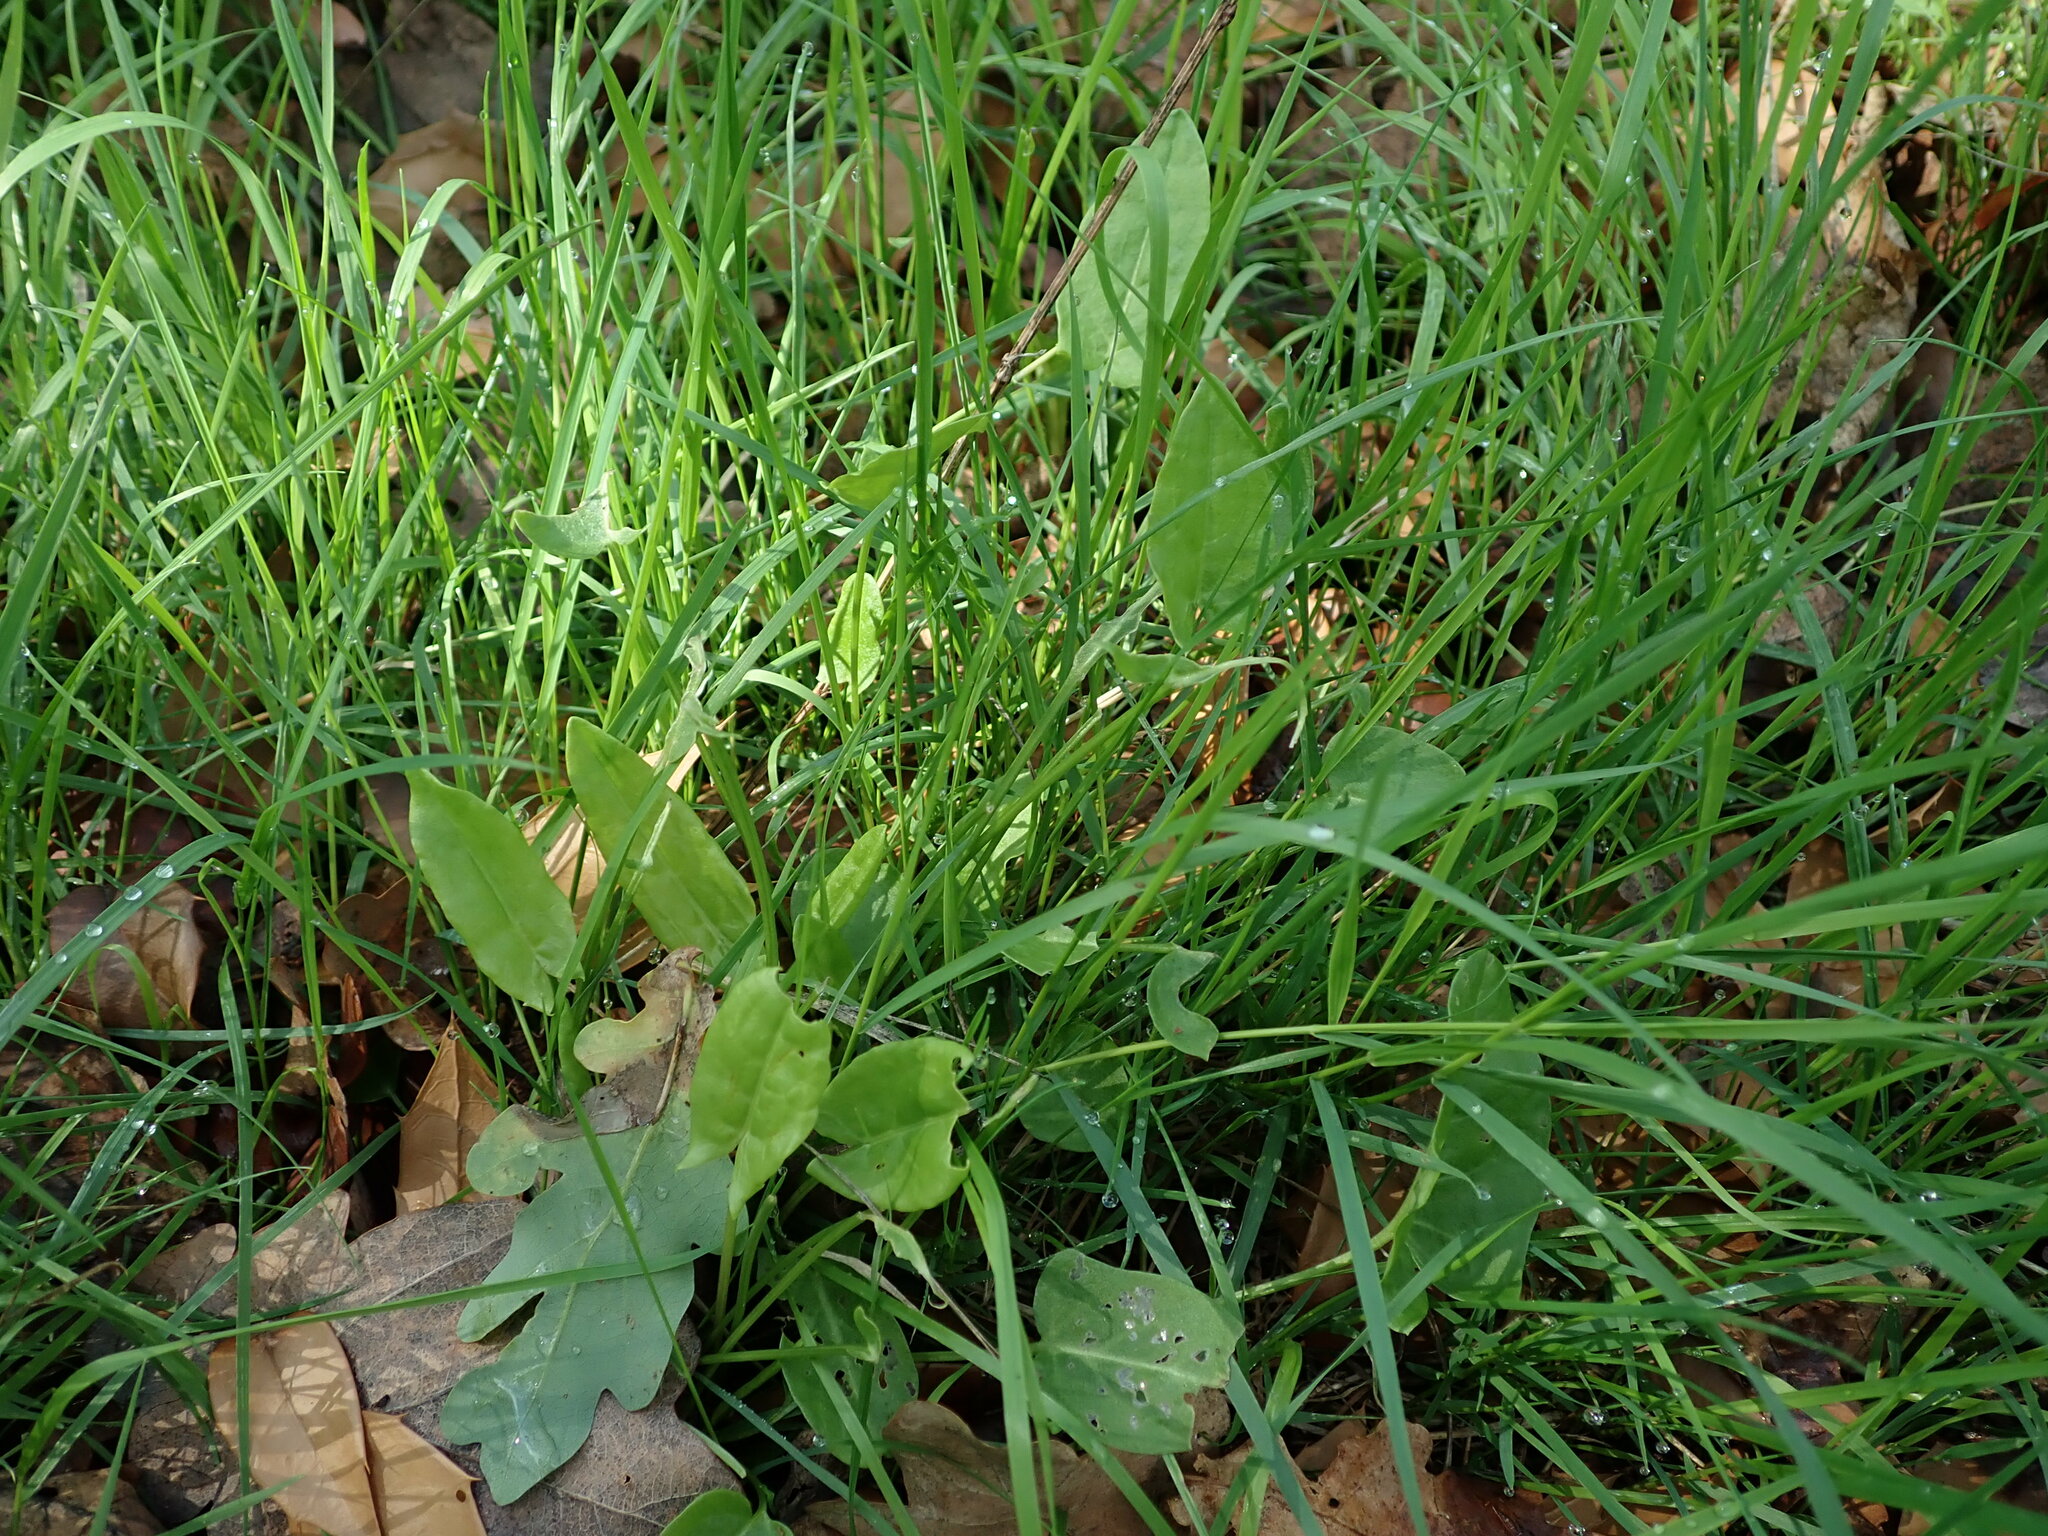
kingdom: Plantae
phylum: Tracheophyta
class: Magnoliopsida
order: Caryophyllales
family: Polygonaceae
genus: Rumex
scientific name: Rumex acetosa
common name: Garden sorrel
